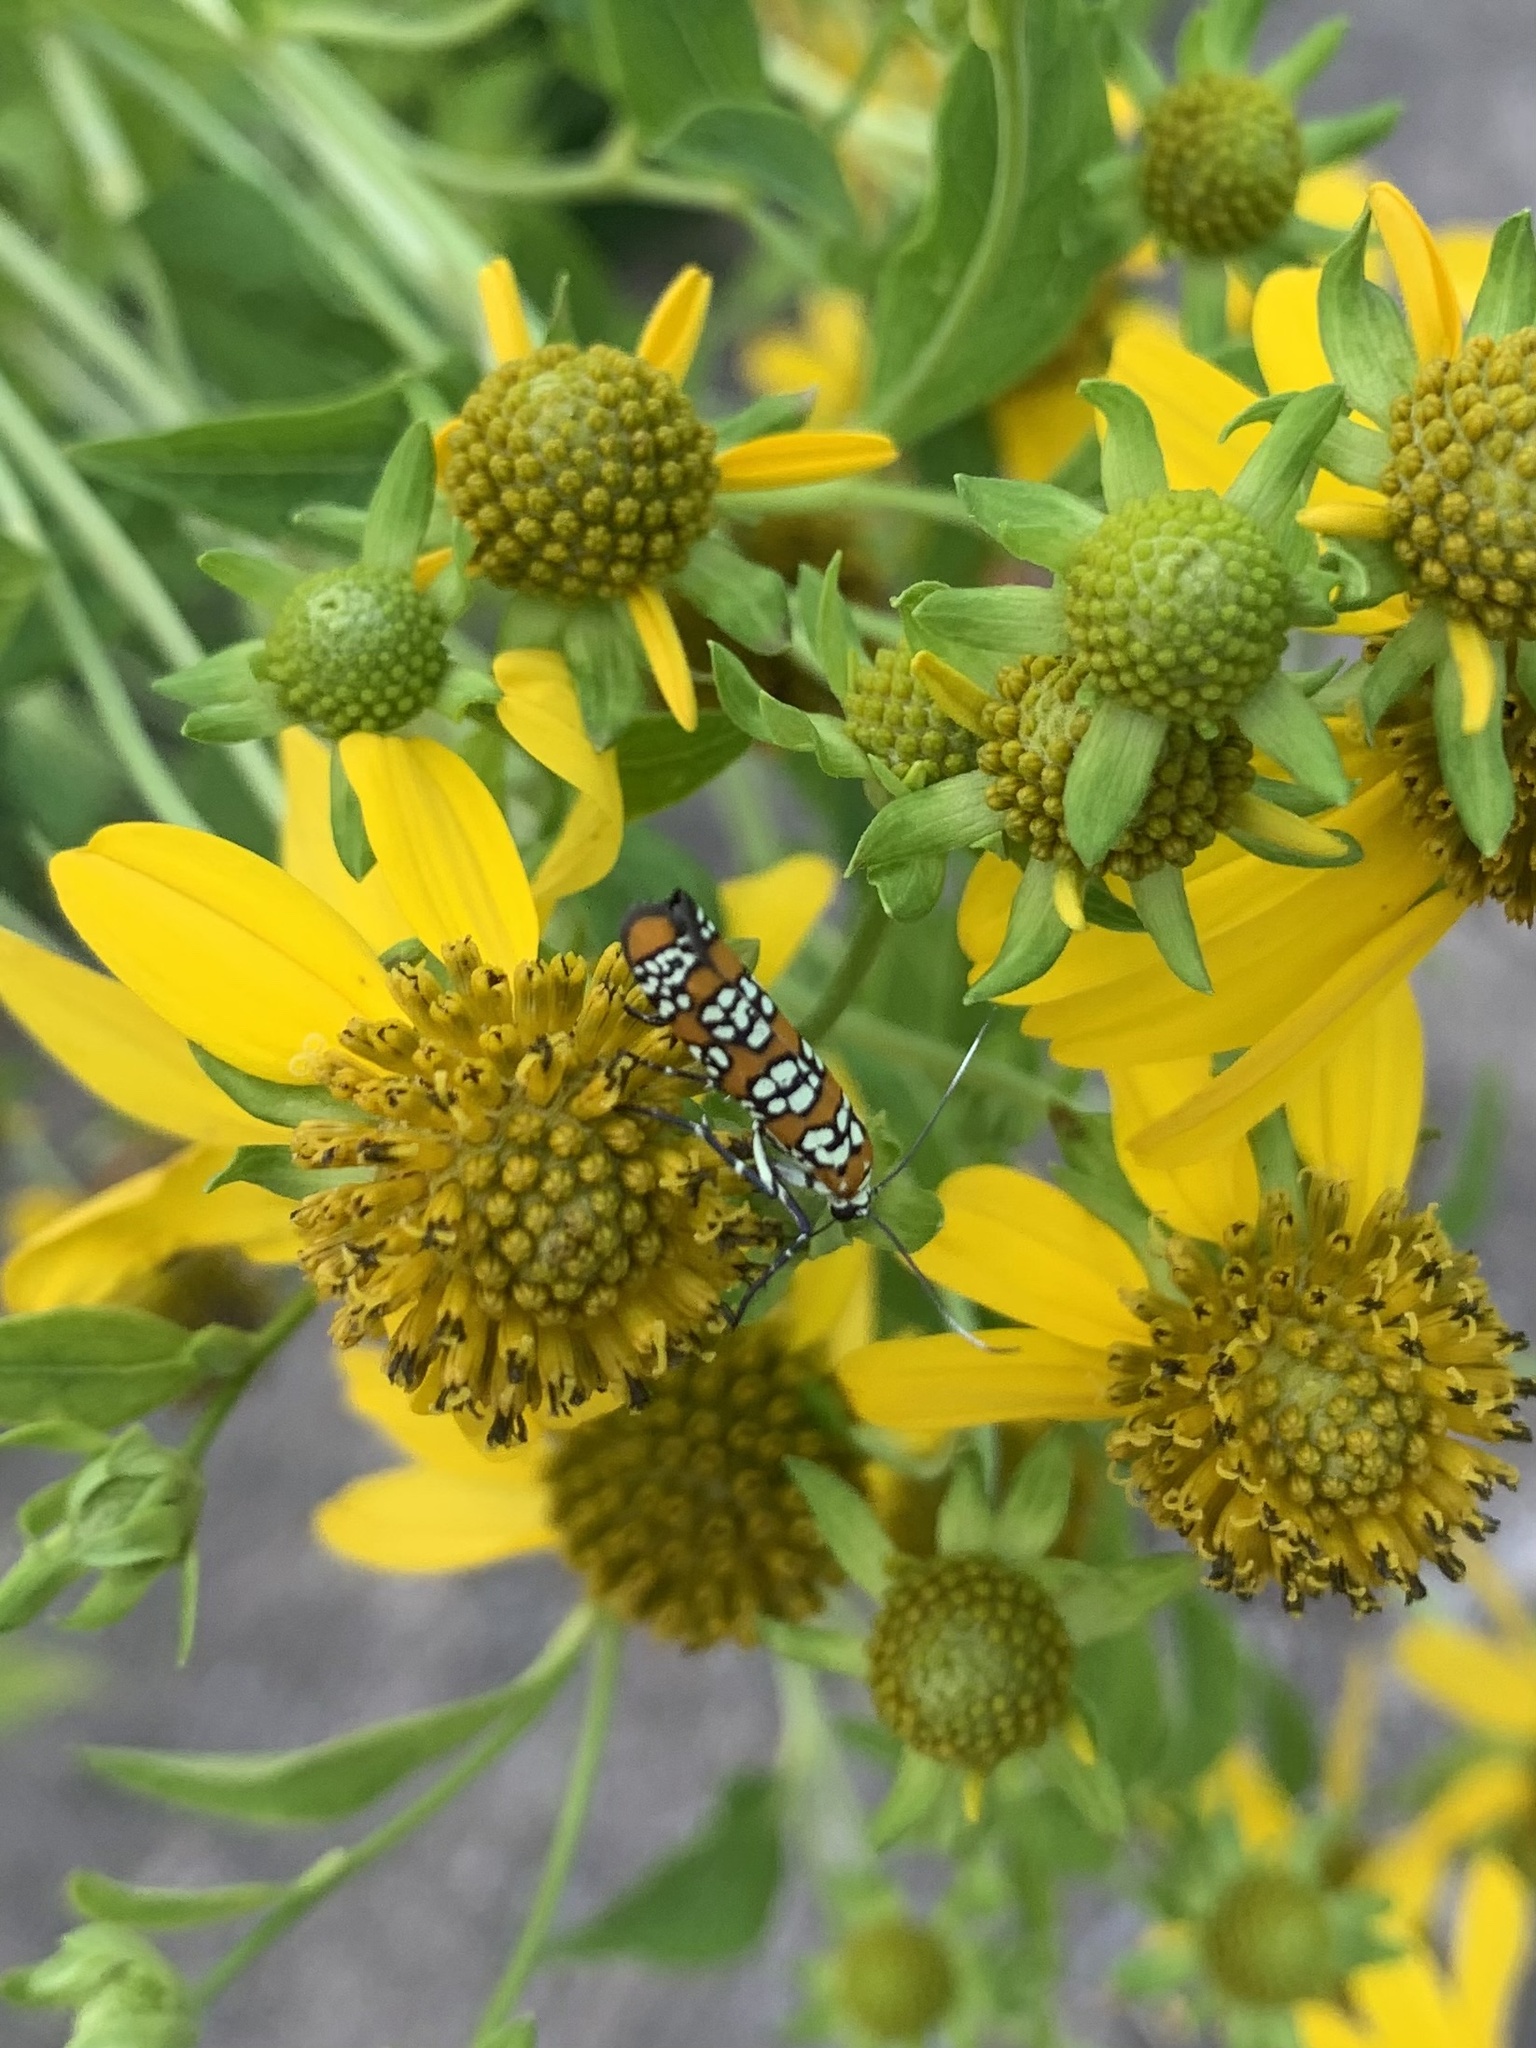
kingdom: Animalia
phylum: Arthropoda
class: Insecta
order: Lepidoptera
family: Attevidae
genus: Atteva
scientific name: Atteva punctella
